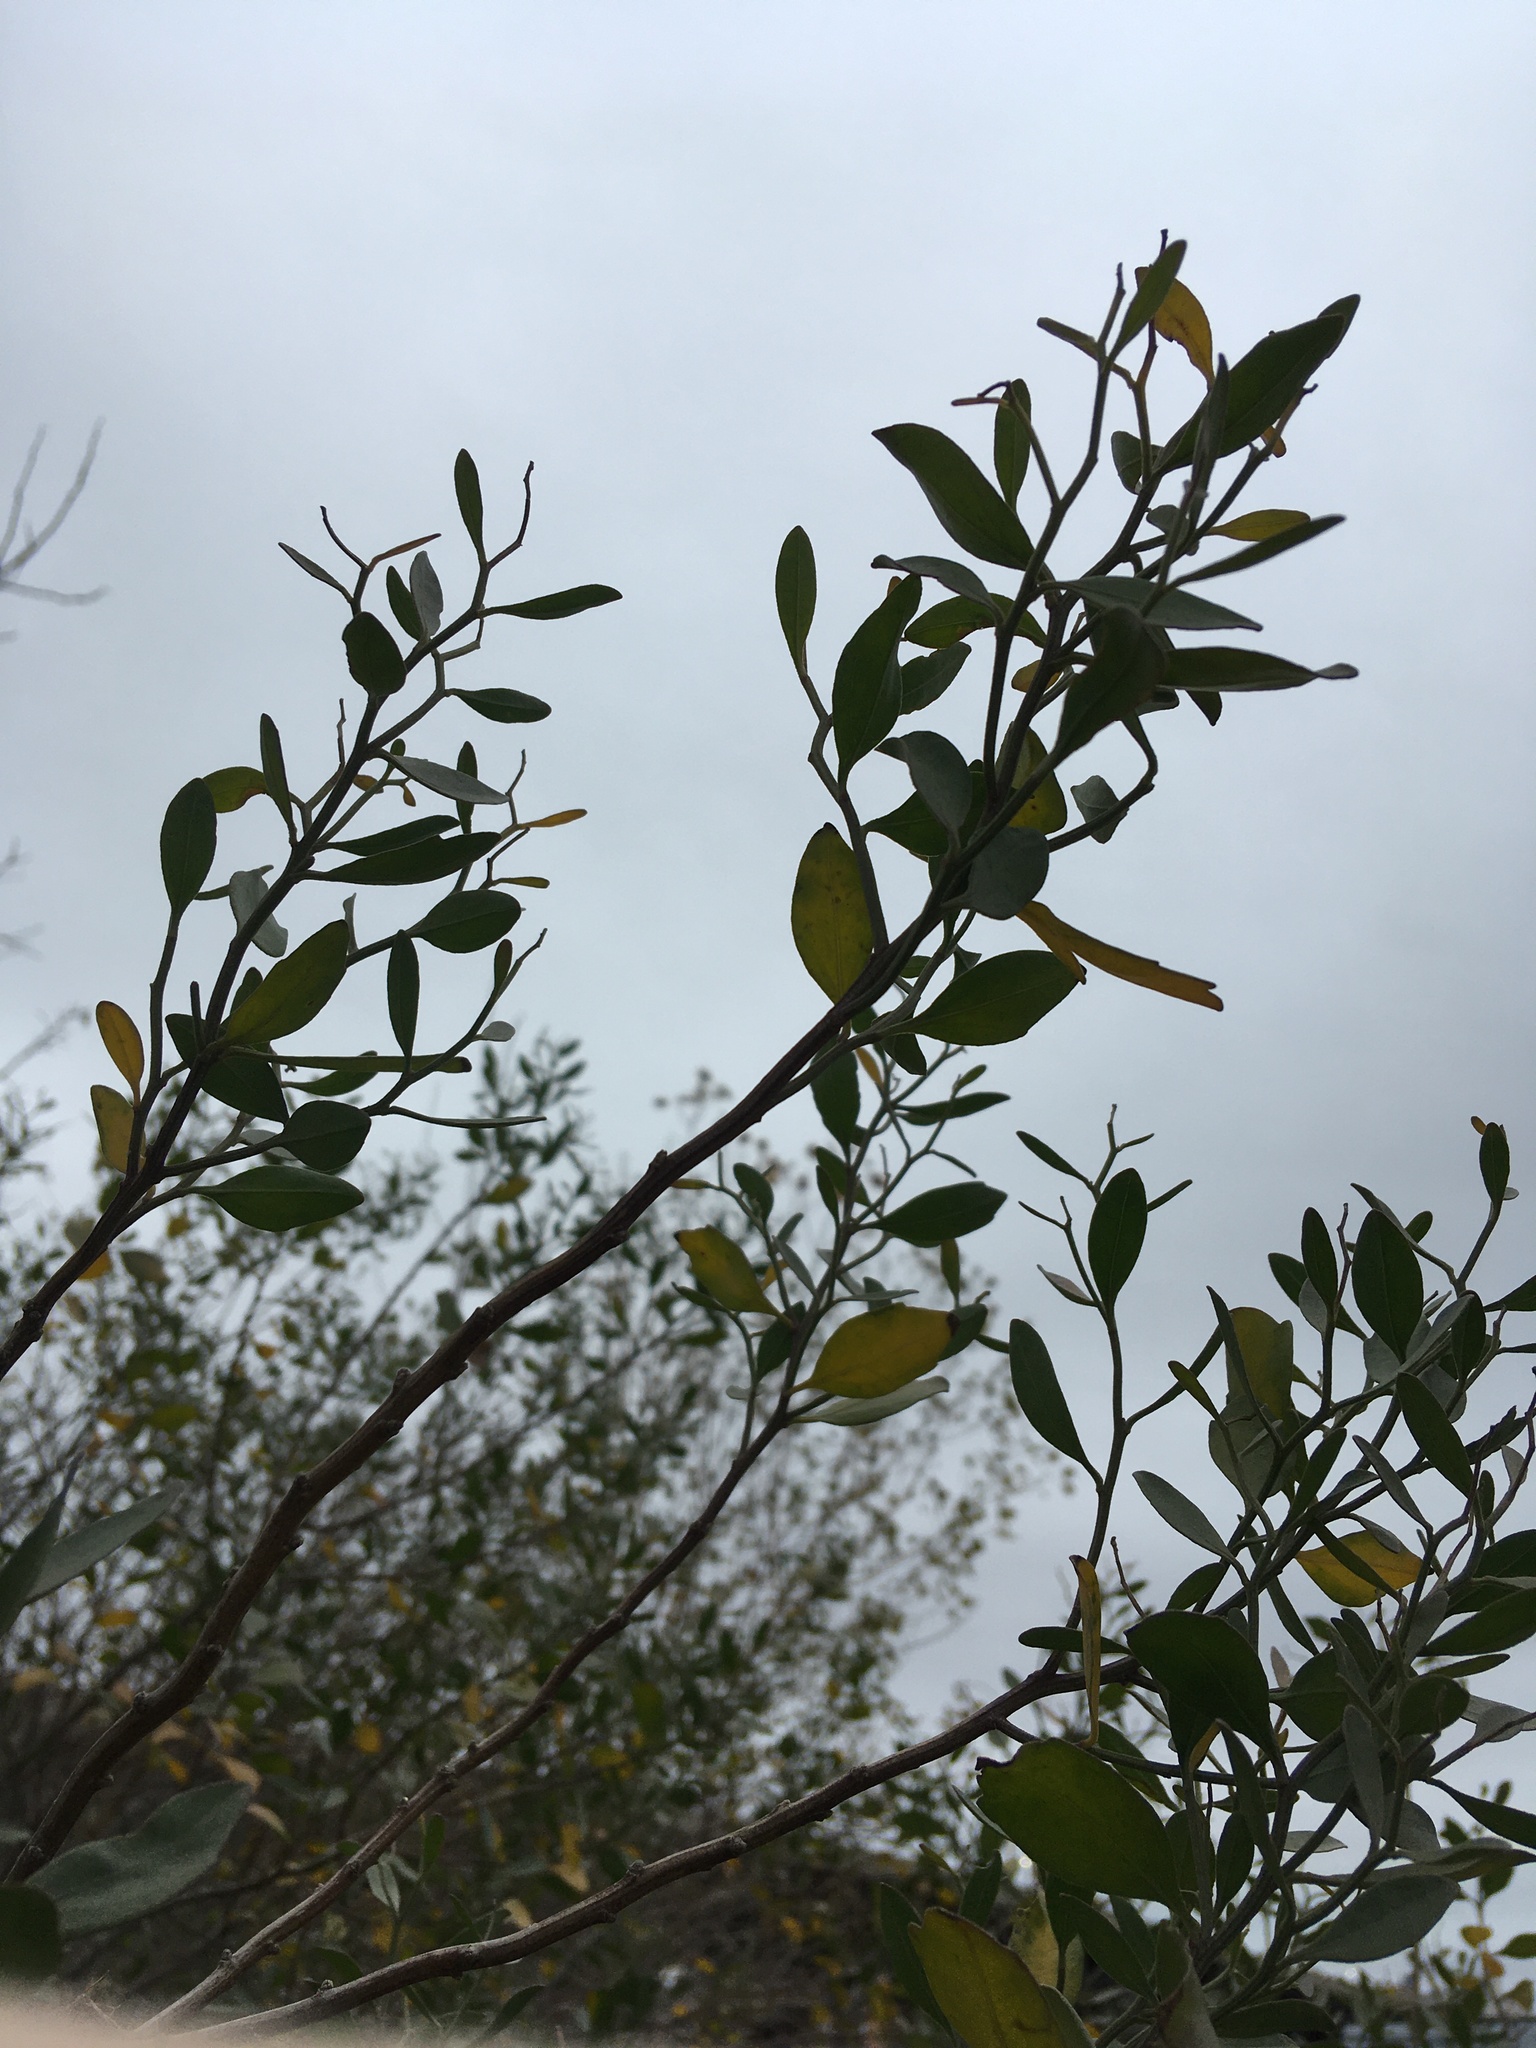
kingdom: Plantae
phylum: Tracheophyta
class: Magnoliopsida
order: Asterales
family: Asteraceae
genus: Baccharis
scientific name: Baccharis halimifolia
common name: Eastern baccharis
